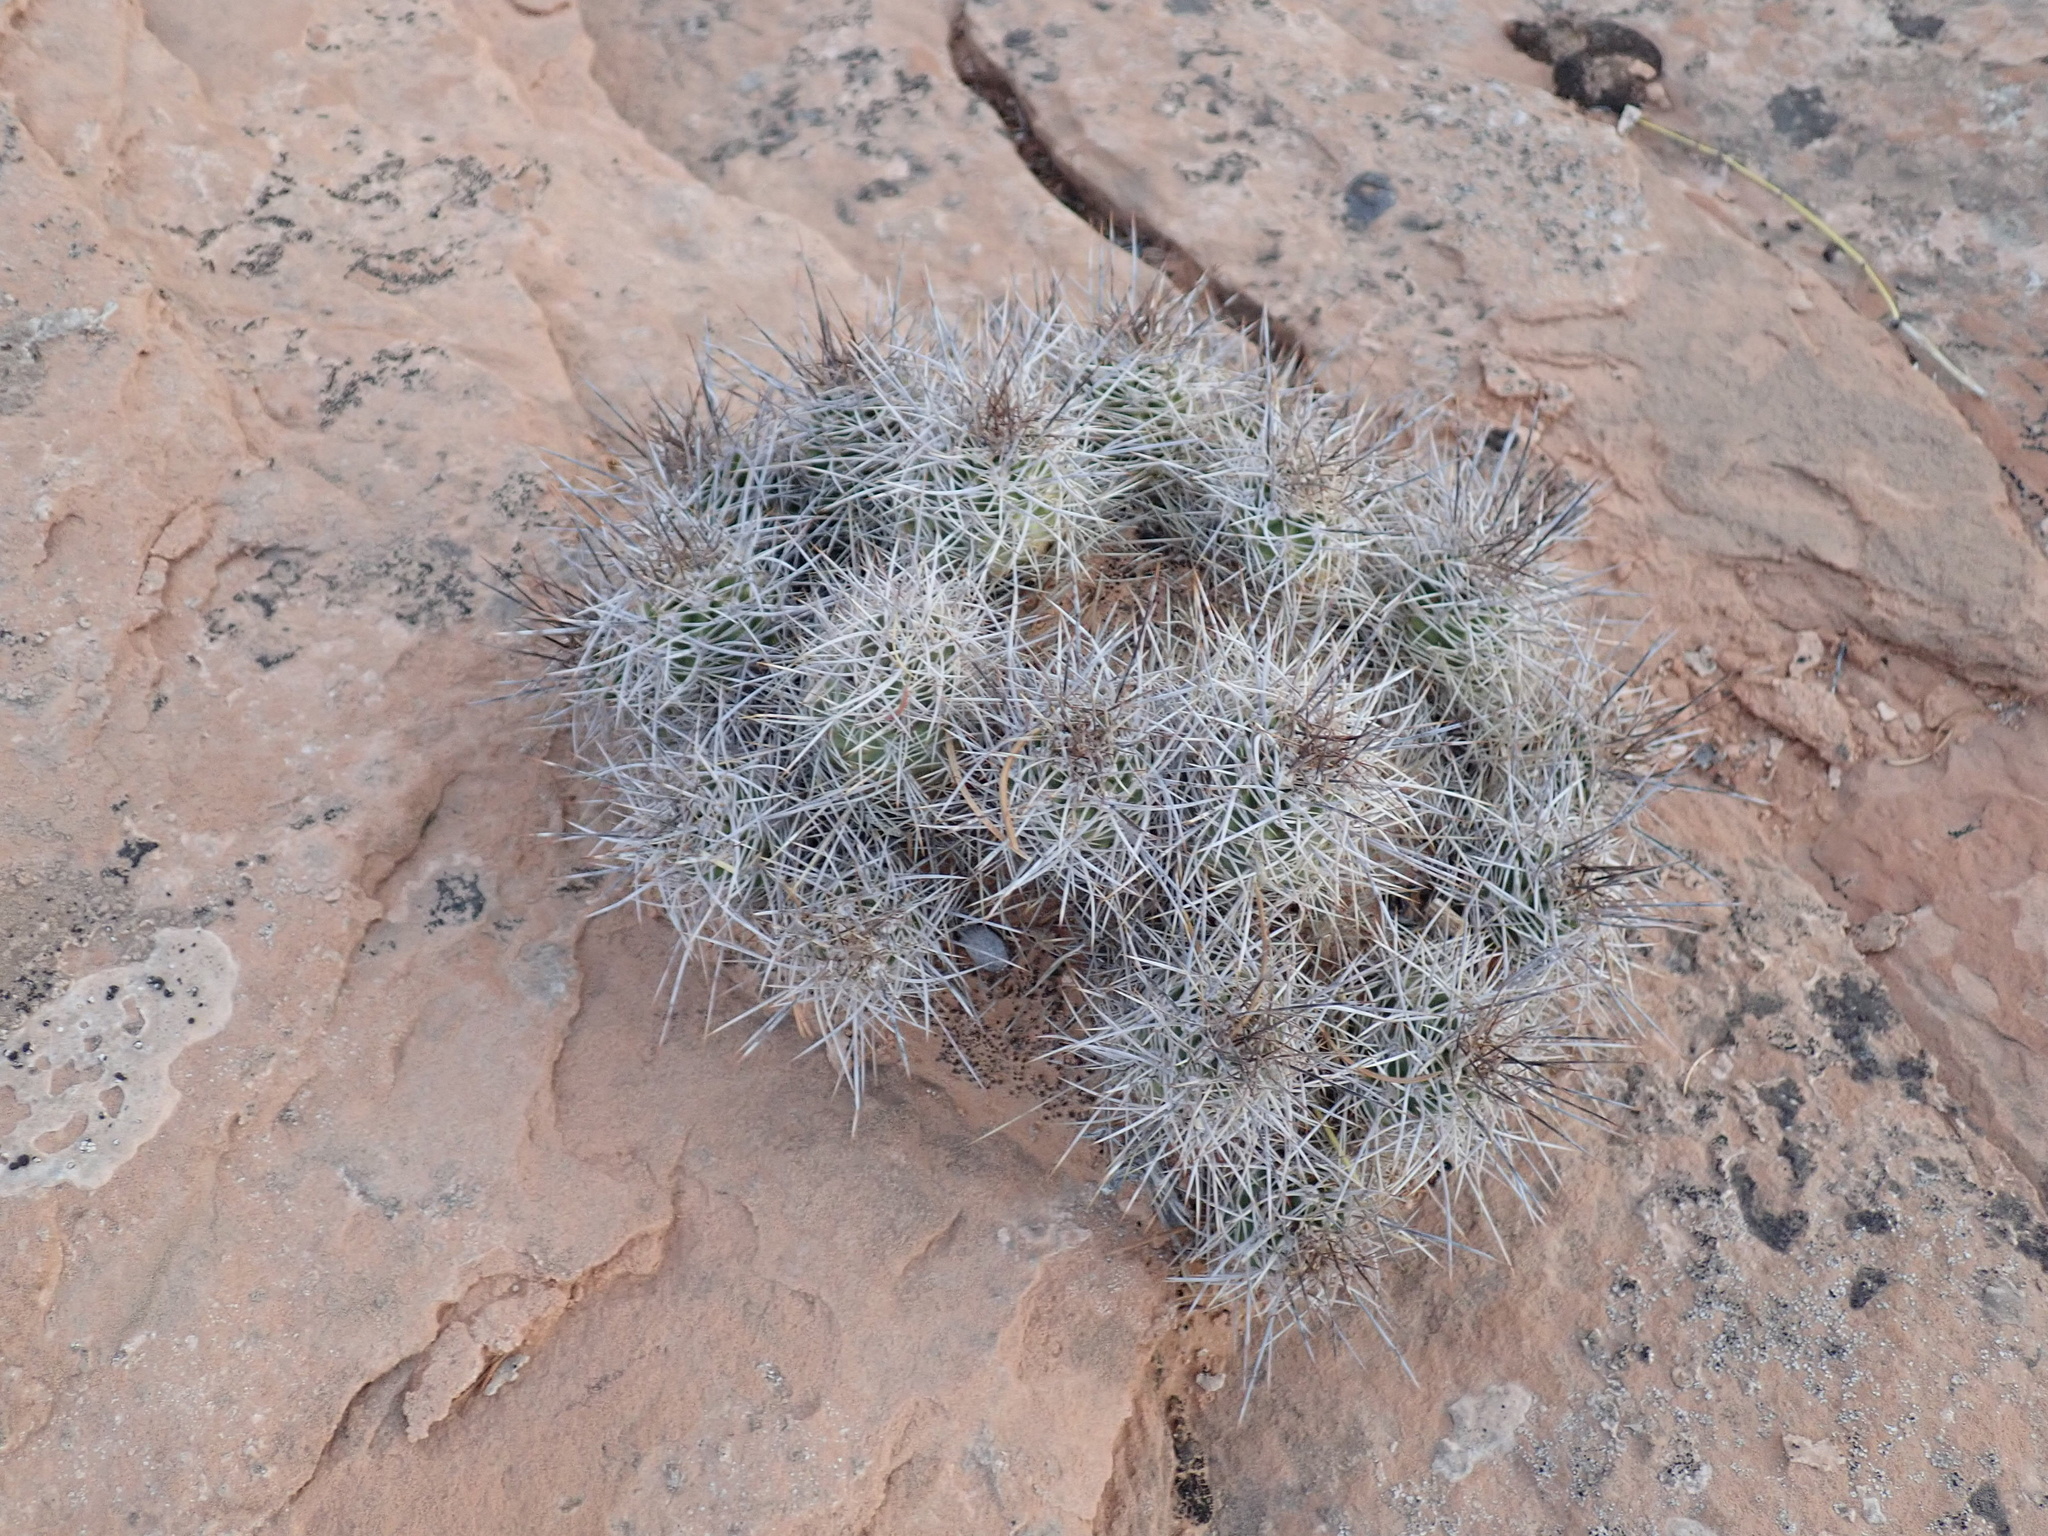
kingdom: Plantae
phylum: Tracheophyta
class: Magnoliopsida
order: Caryophyllales
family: Cactaceae
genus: Echinocereus
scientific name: Echinocereus triglochidiatus
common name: Claretcup hedgehog
